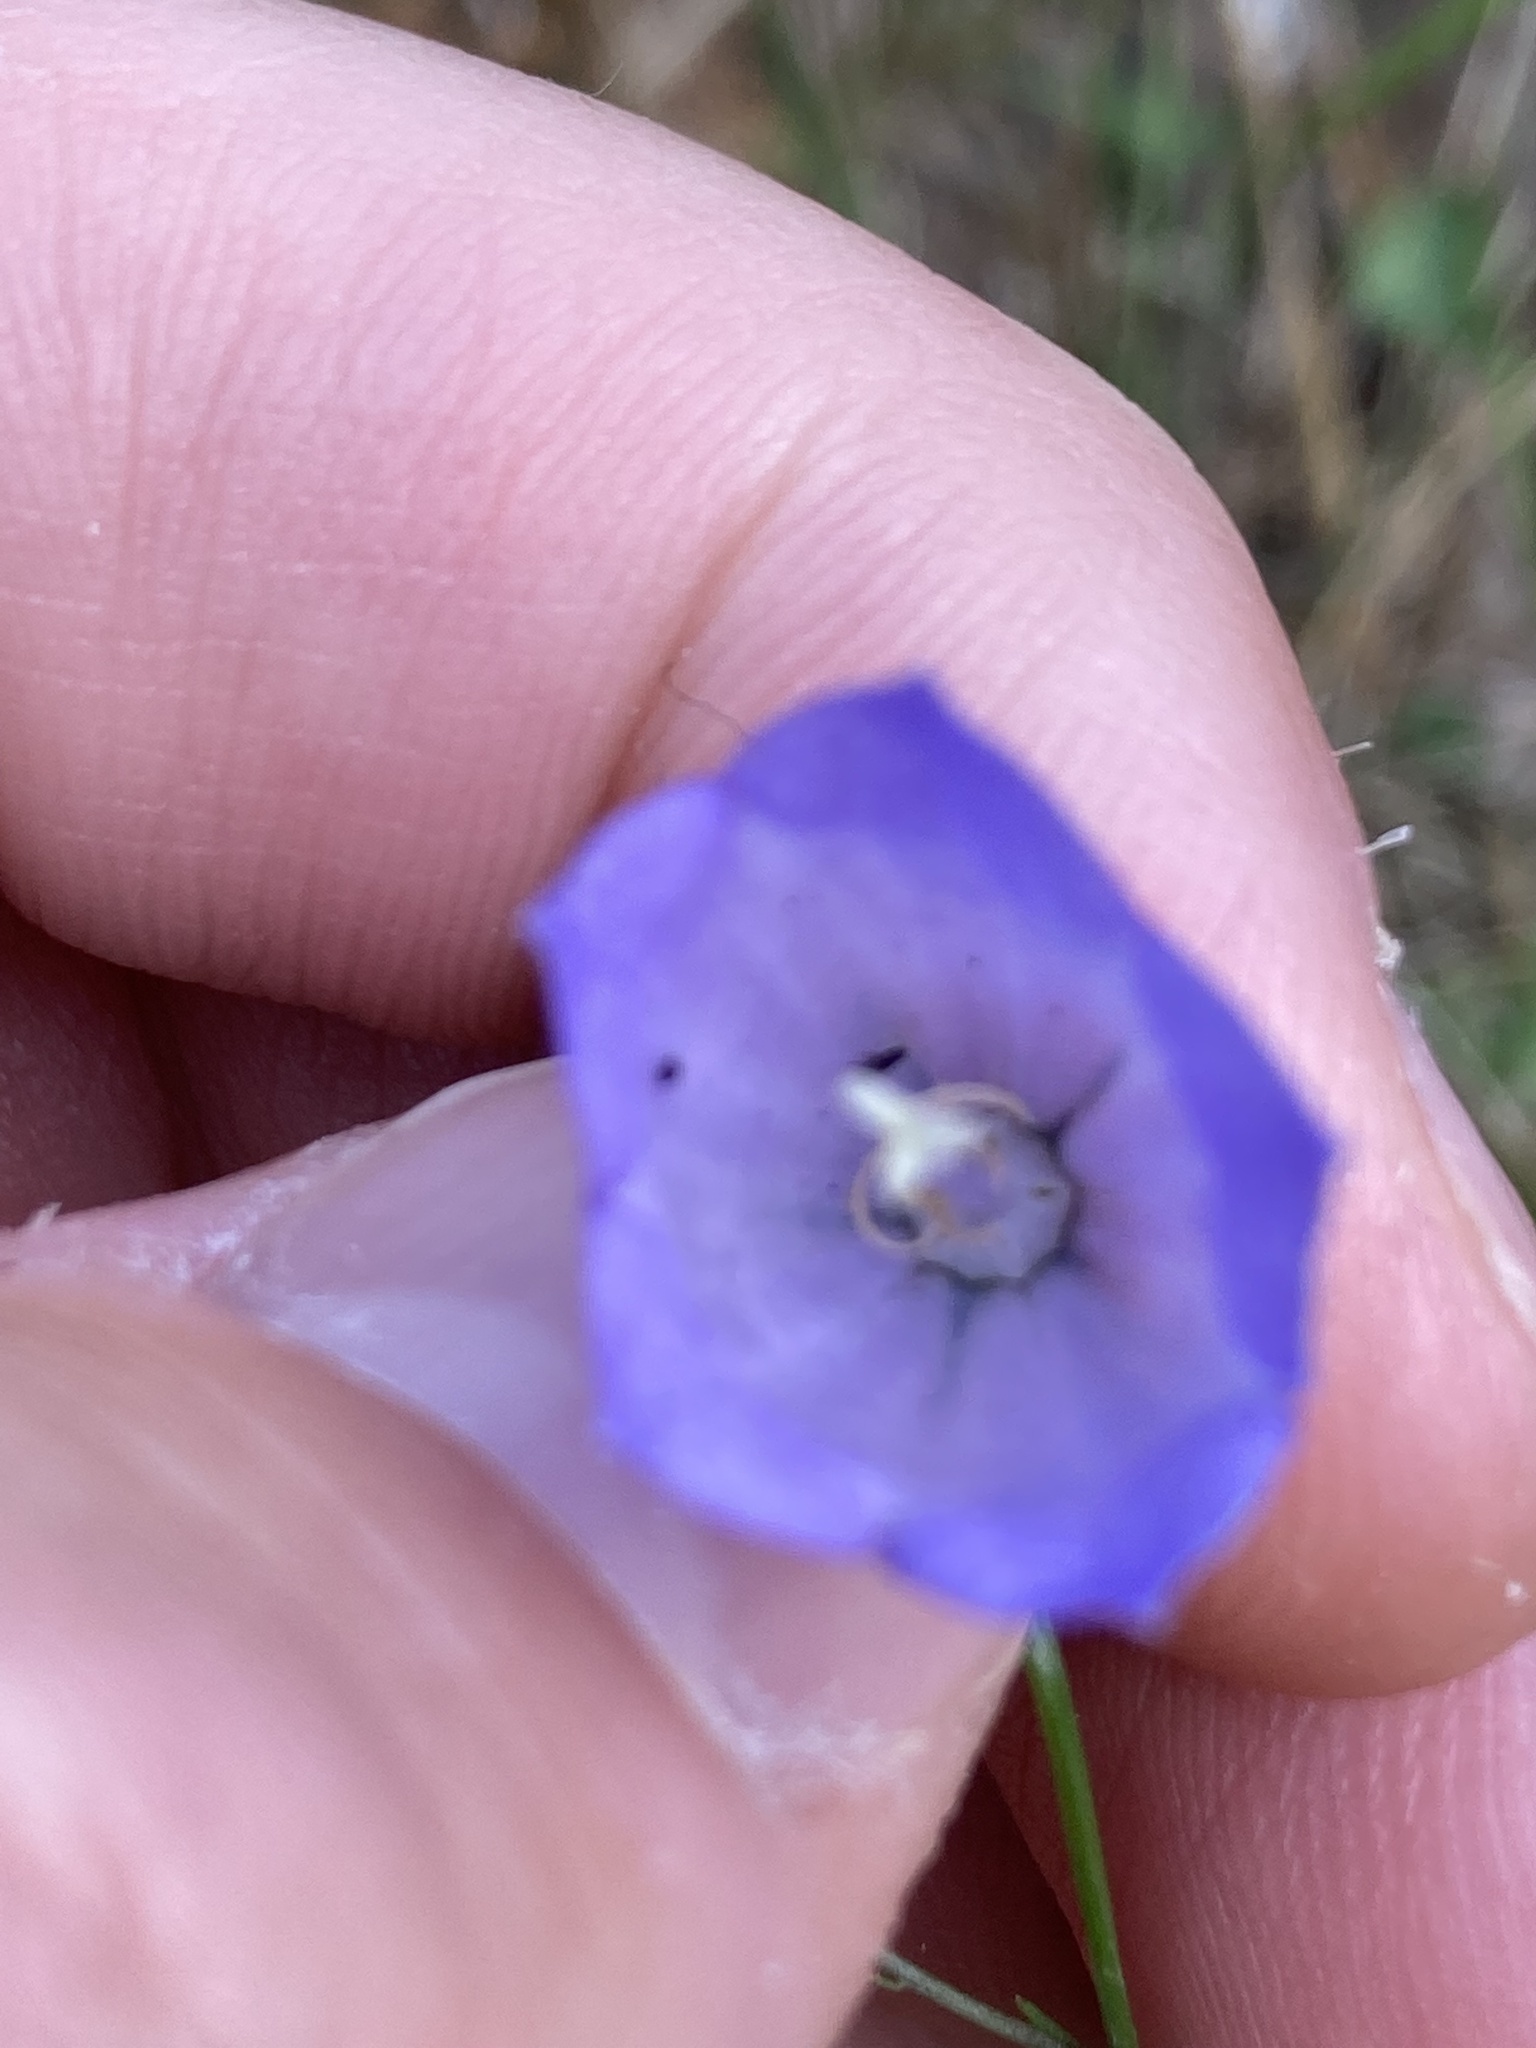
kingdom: Plantae
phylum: Tracheophyta
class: Magnoliopsida
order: Asterales
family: Campanulaceae
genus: Campanula
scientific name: Campanula rotundifolia
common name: Harebell
